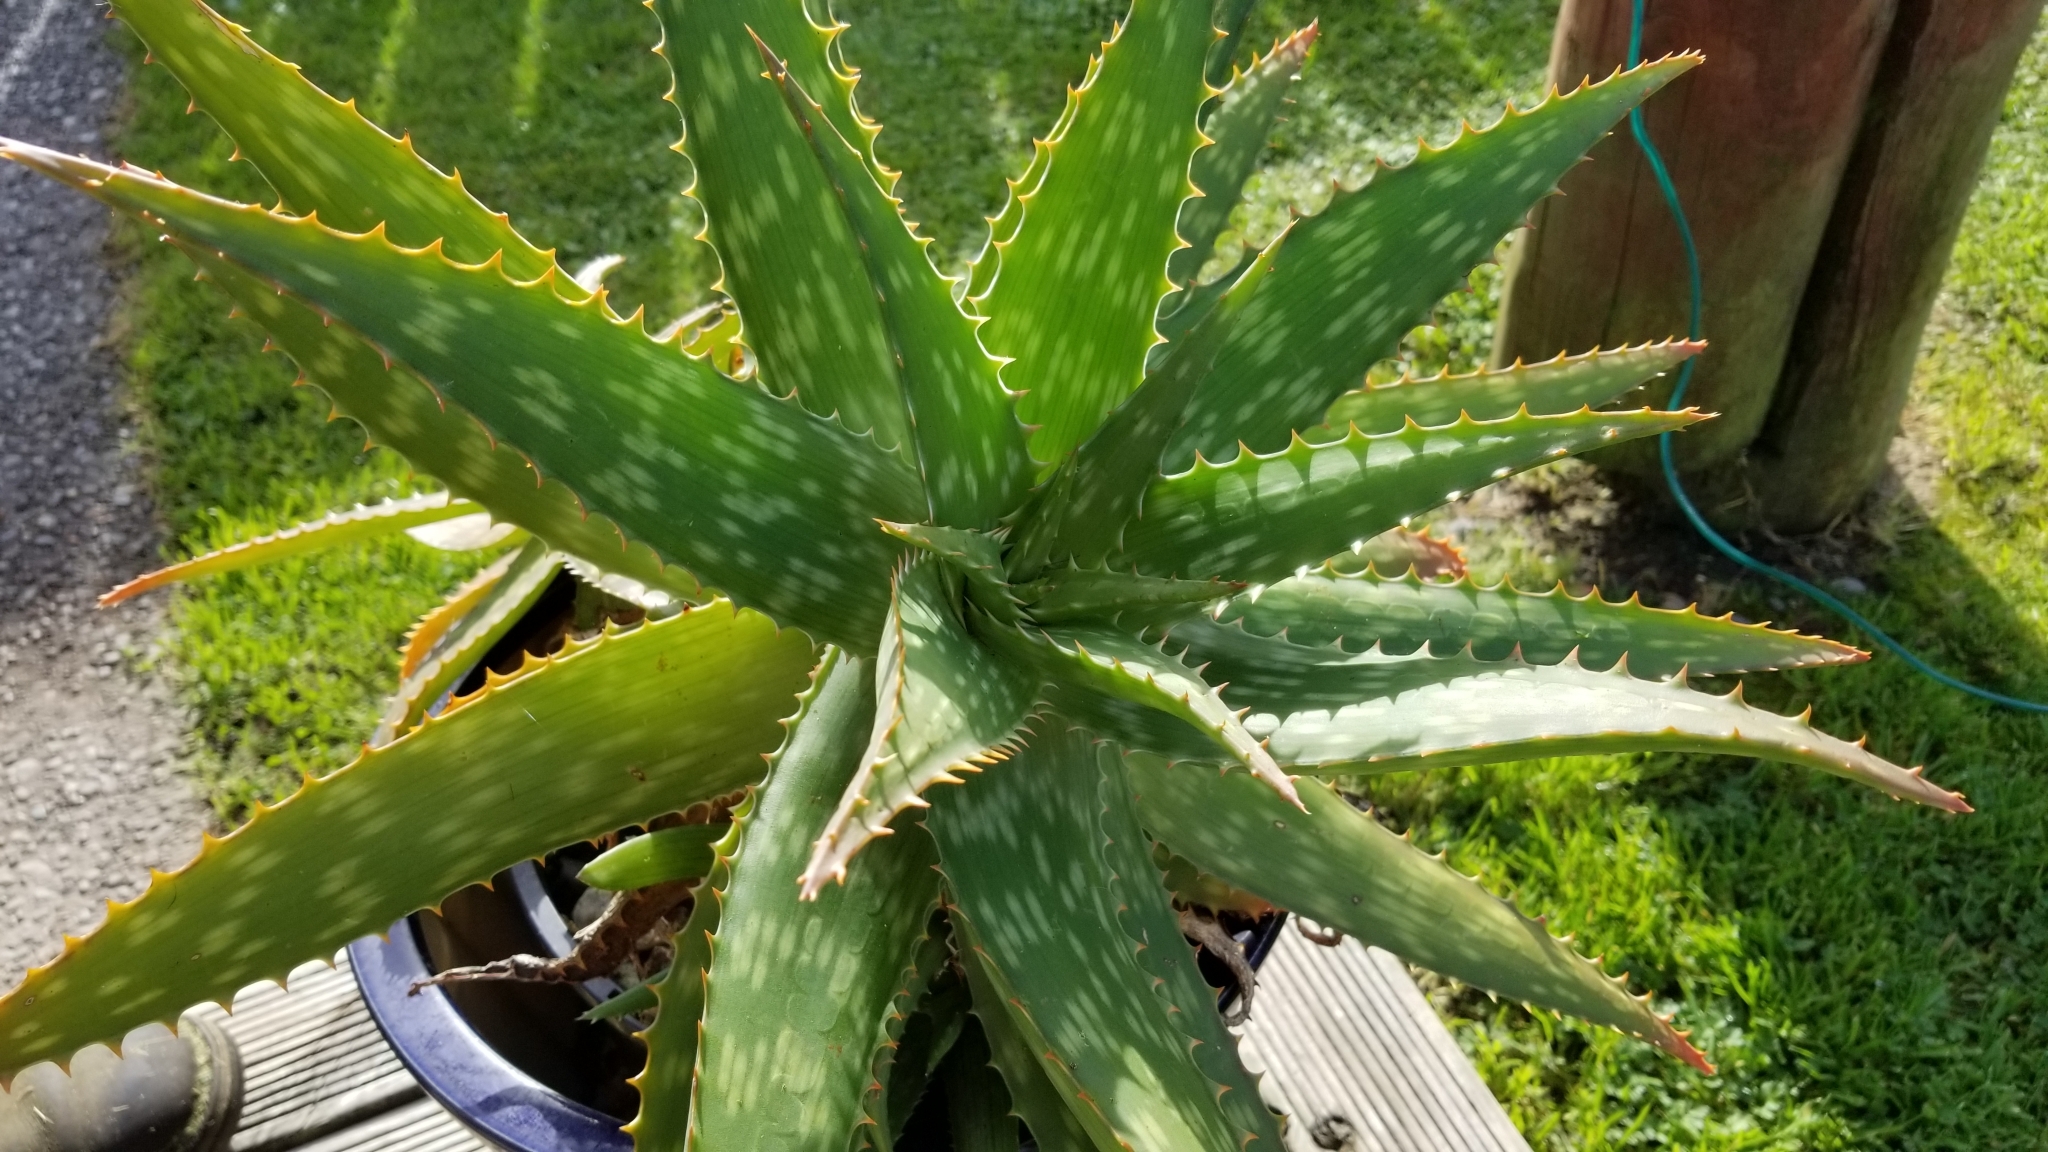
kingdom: Plantae
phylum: Tracheophyta
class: Liliopsida
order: Asparagales
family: Asphodelaceae
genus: Aloe
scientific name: Aloe maculata
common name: Broadleaf aloe
